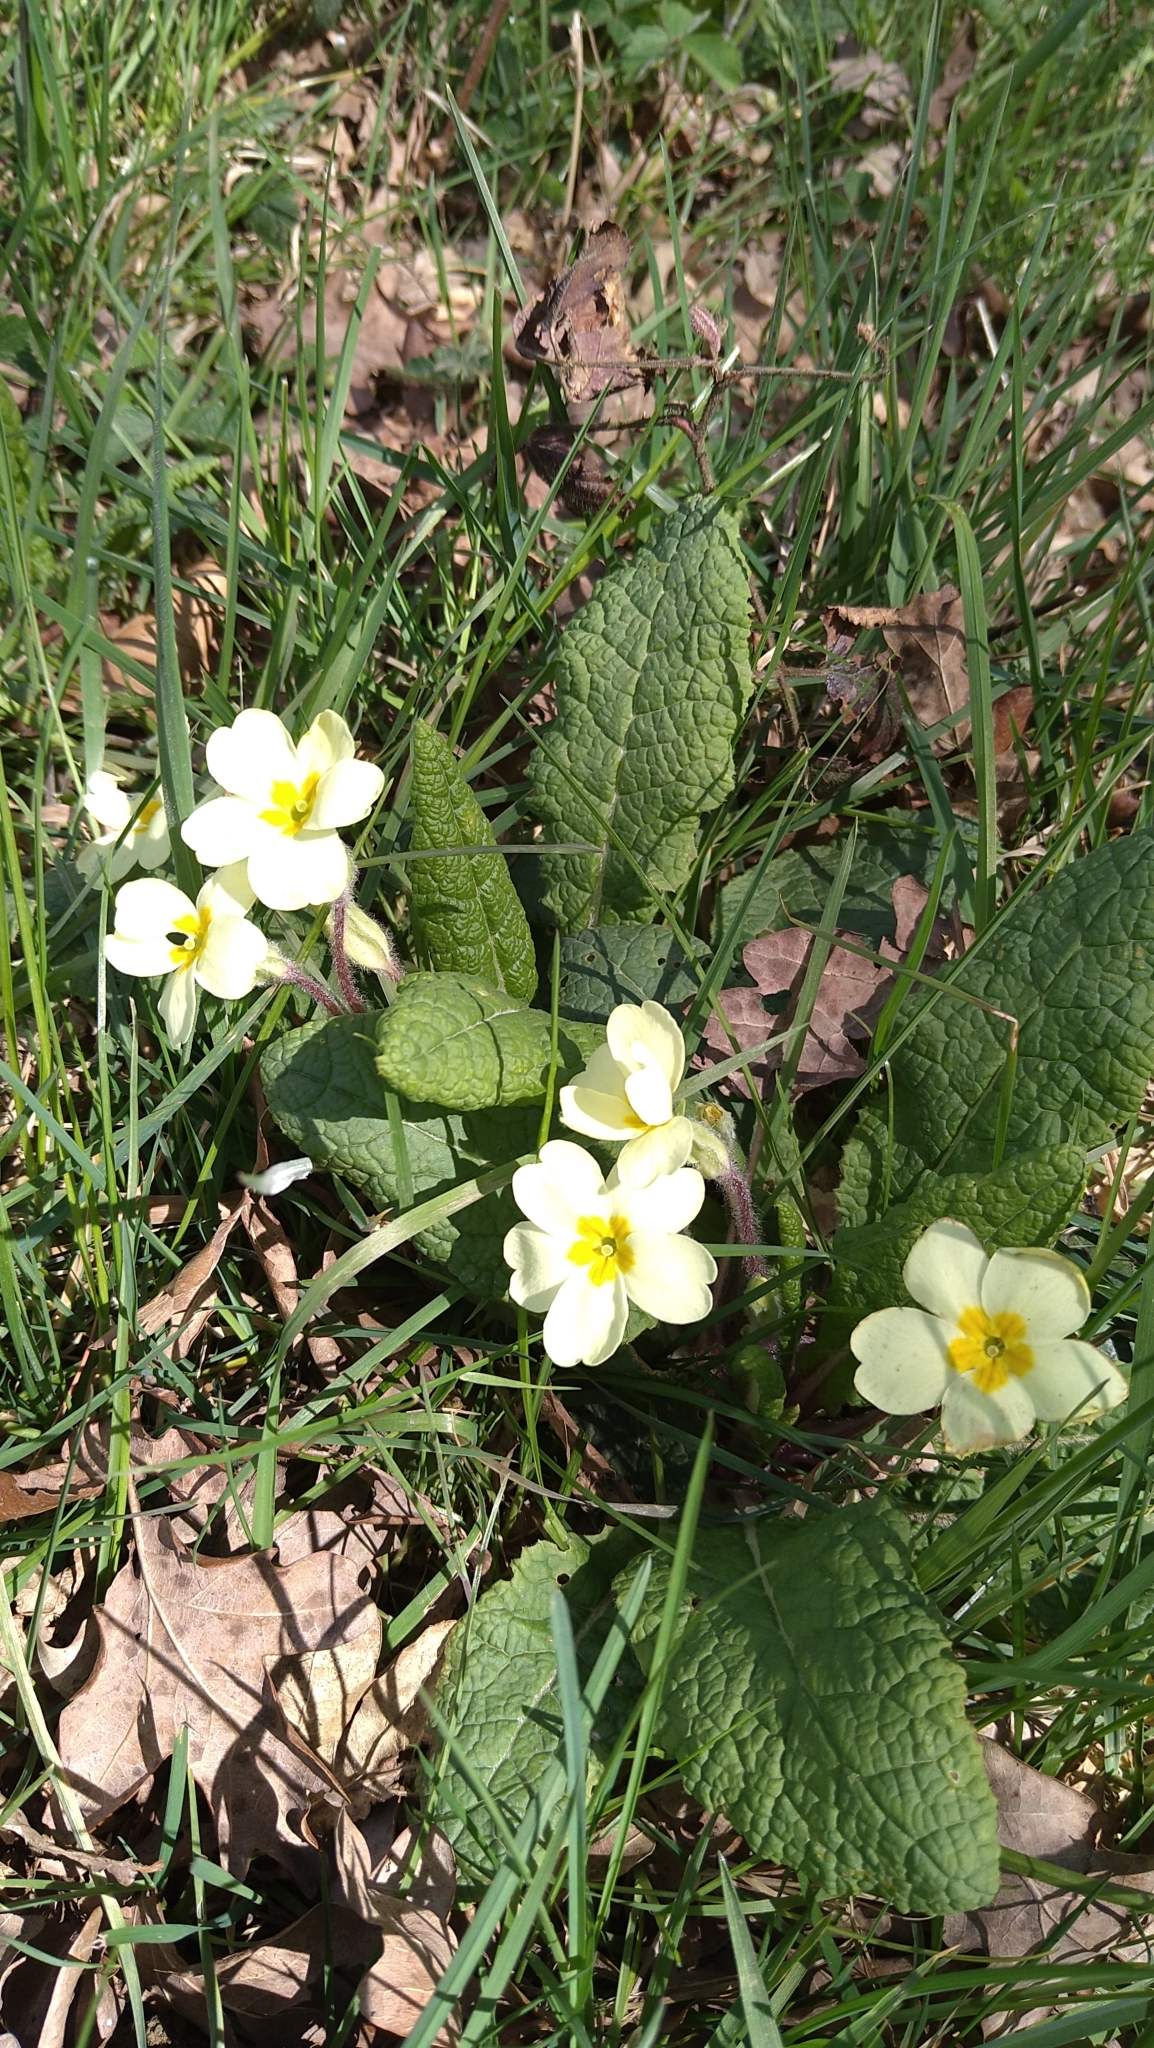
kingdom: Plantae
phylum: Tracheophyta
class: Magnoliopsida
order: Ericales
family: Primulaceae
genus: Primula
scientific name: Primula vulgaris
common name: Primrose
